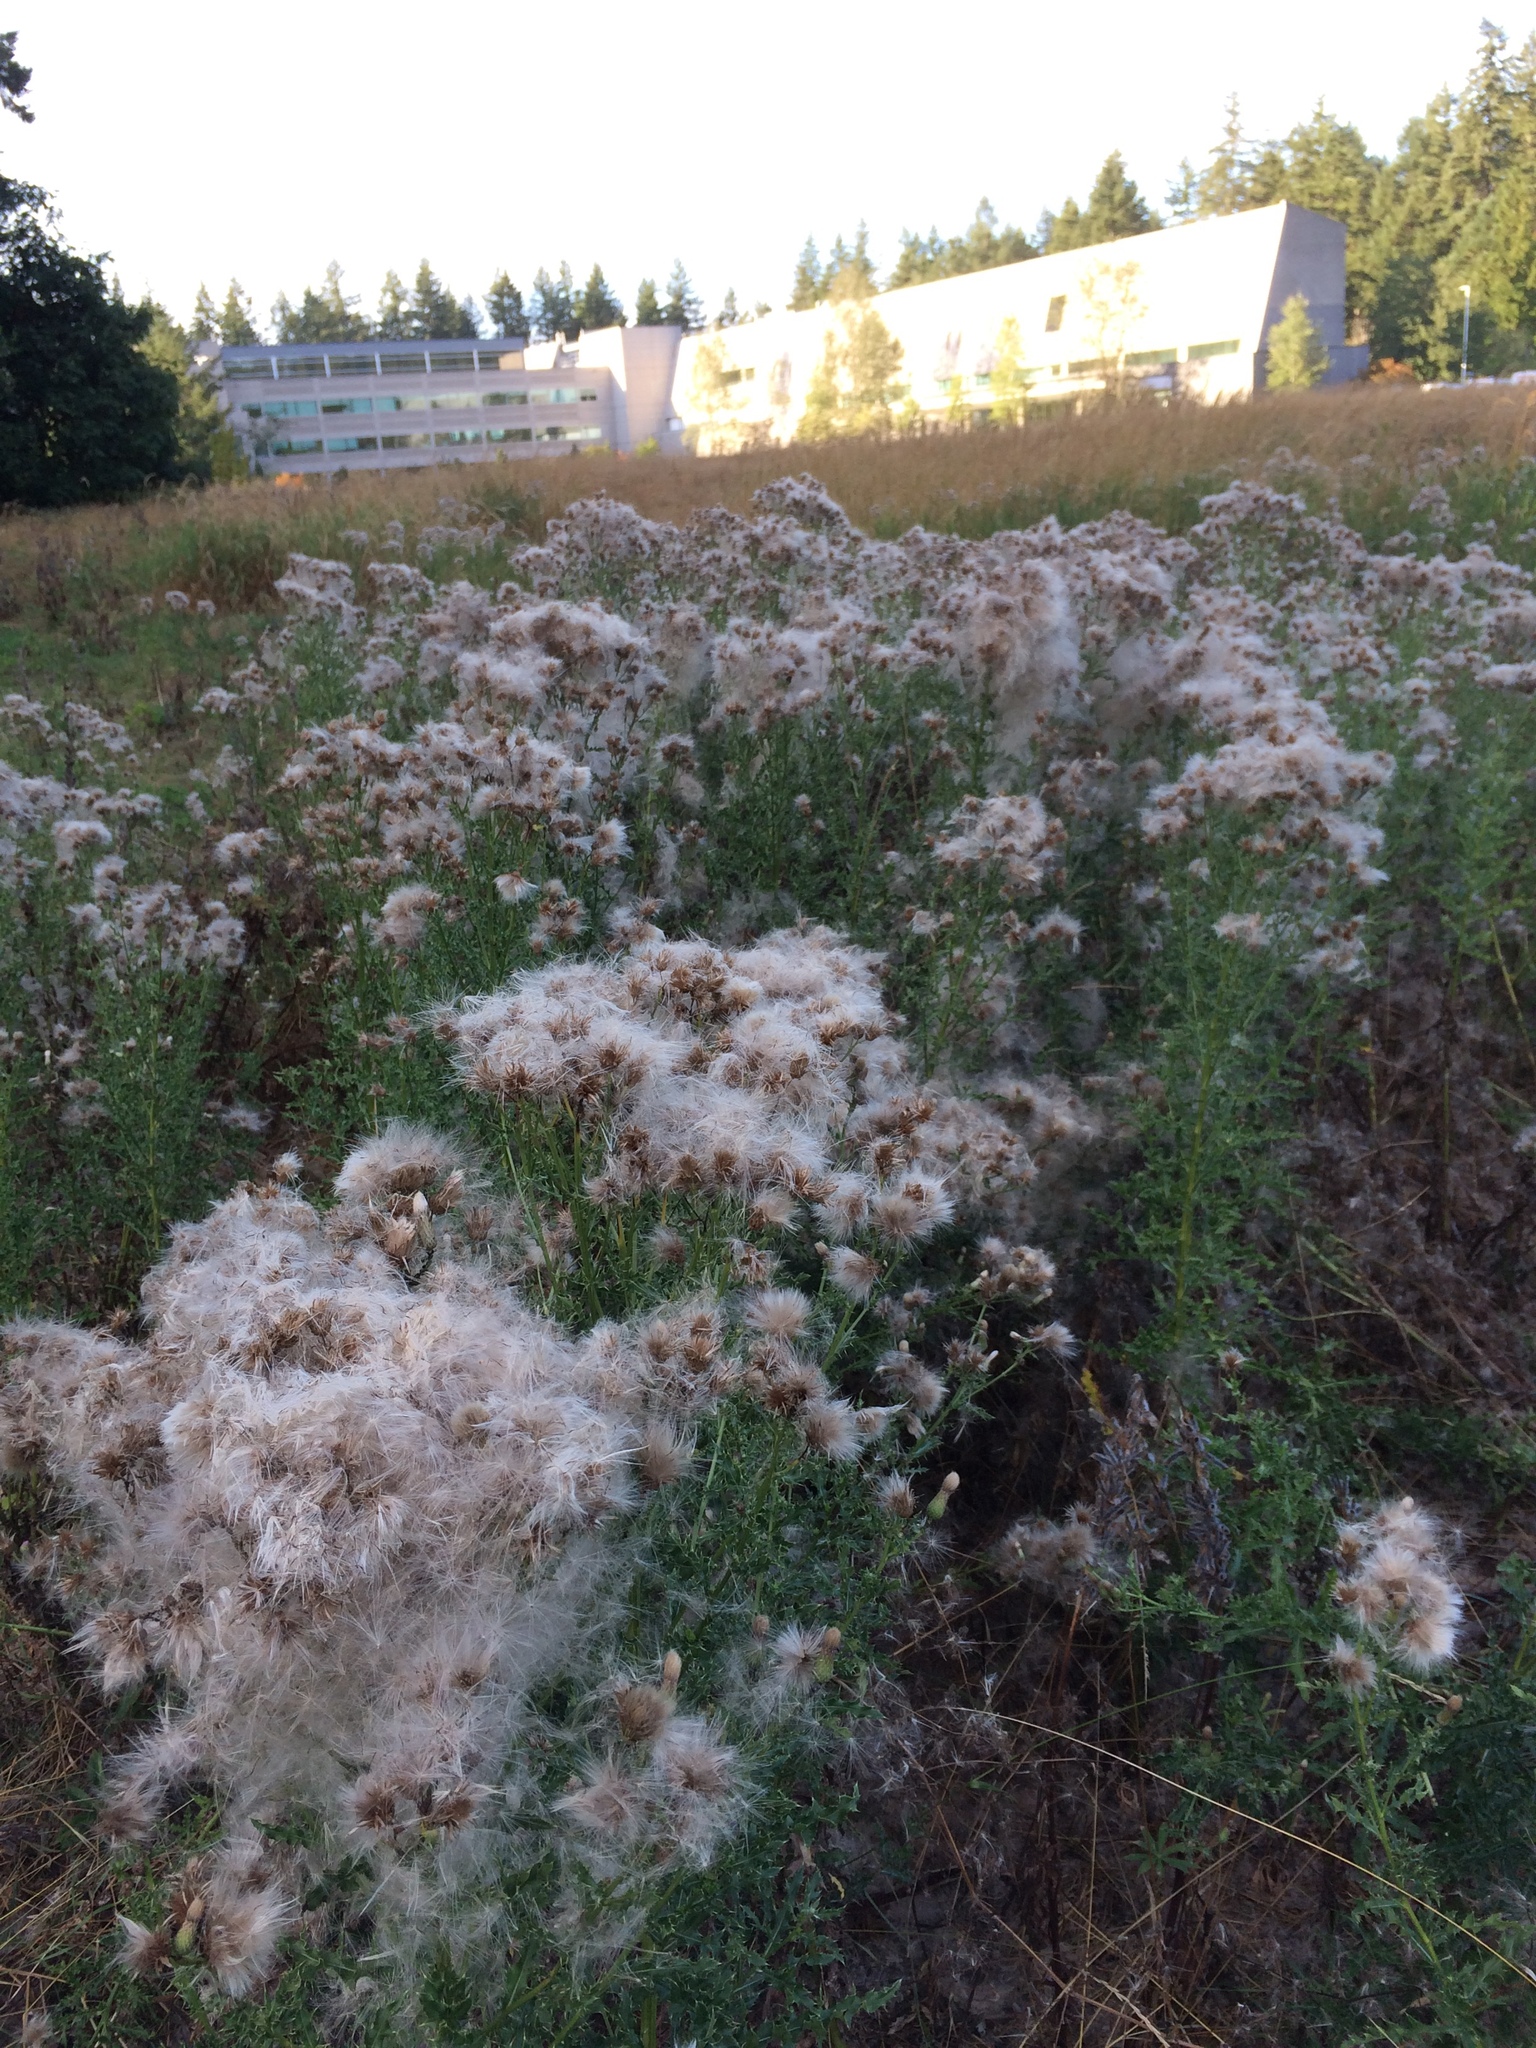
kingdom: Plantae
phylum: Tracheophyta
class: Magnoliopsida
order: Asterales
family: Asteraceae
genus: Cirsium
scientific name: Cirsium arvense
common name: Creeping thistle
